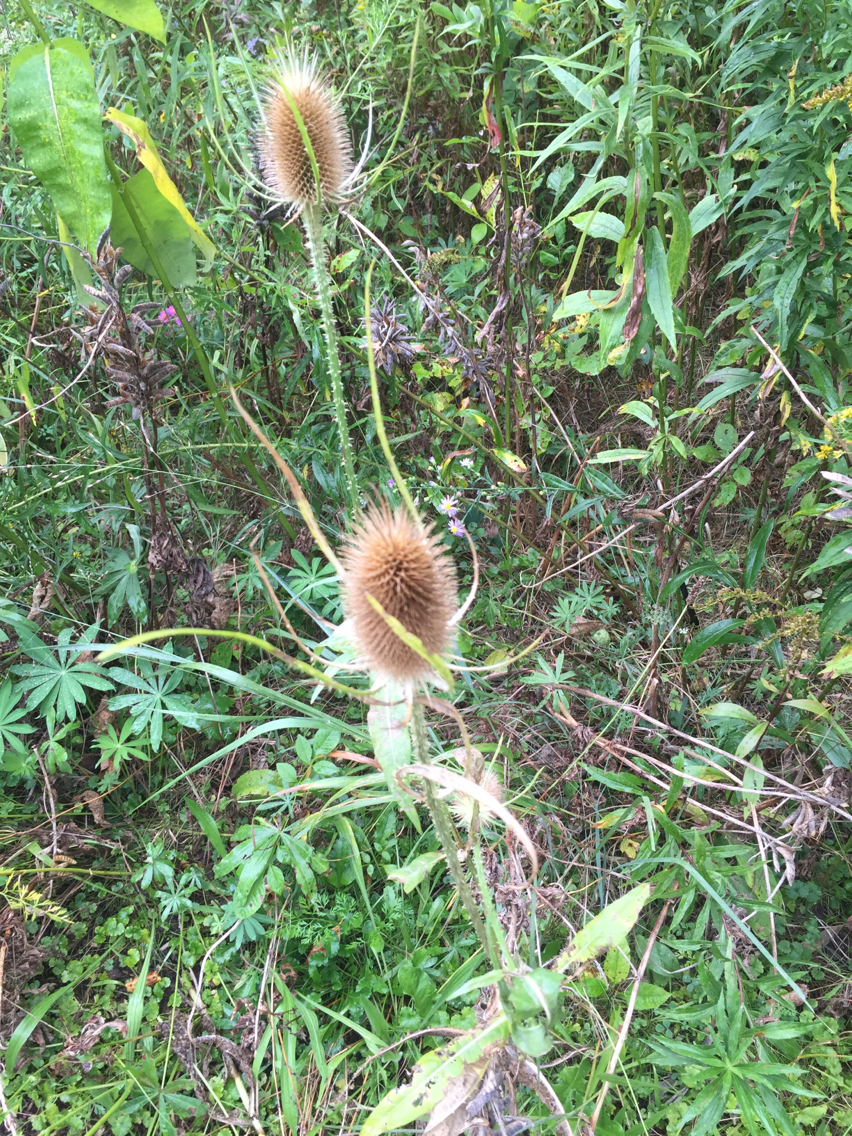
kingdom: Plantae
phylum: Tracheophyta
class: Magnoliopsida
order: Dipsacales
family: Caprifoliaceae
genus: Dipsacus
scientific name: Dipsacus fullonum
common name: Teasel
